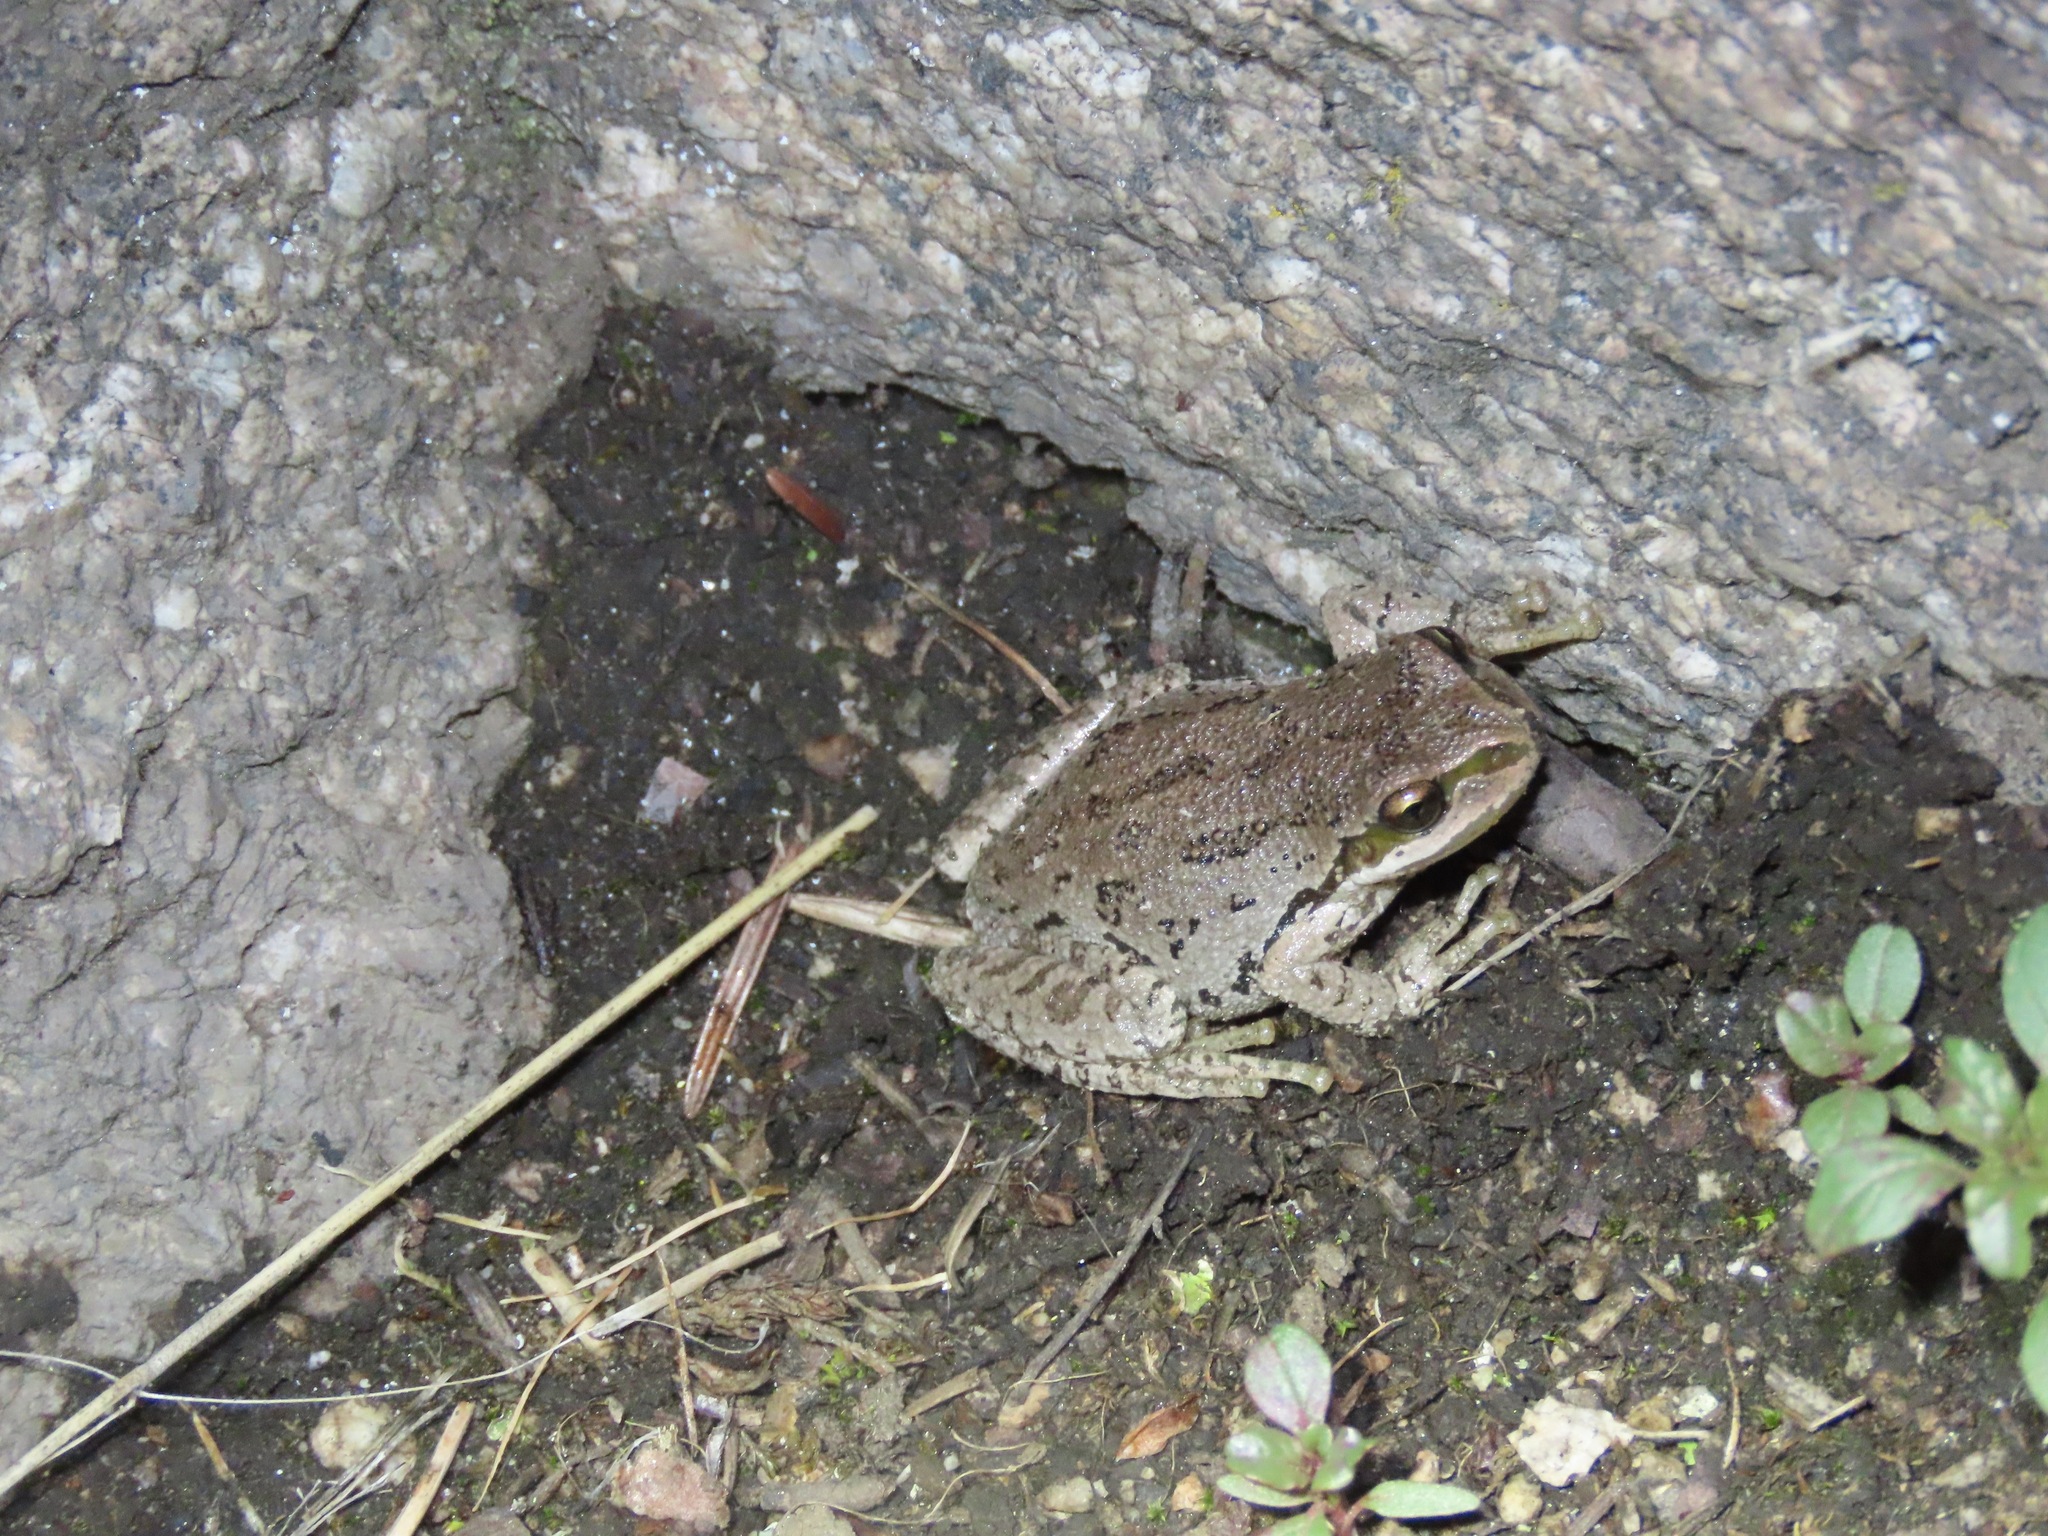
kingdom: Animalia
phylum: Chordata
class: Amphibia
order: Anura
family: Hylidae
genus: Pseudacris
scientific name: Pseudacris regilla
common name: Pacific chorus frog
